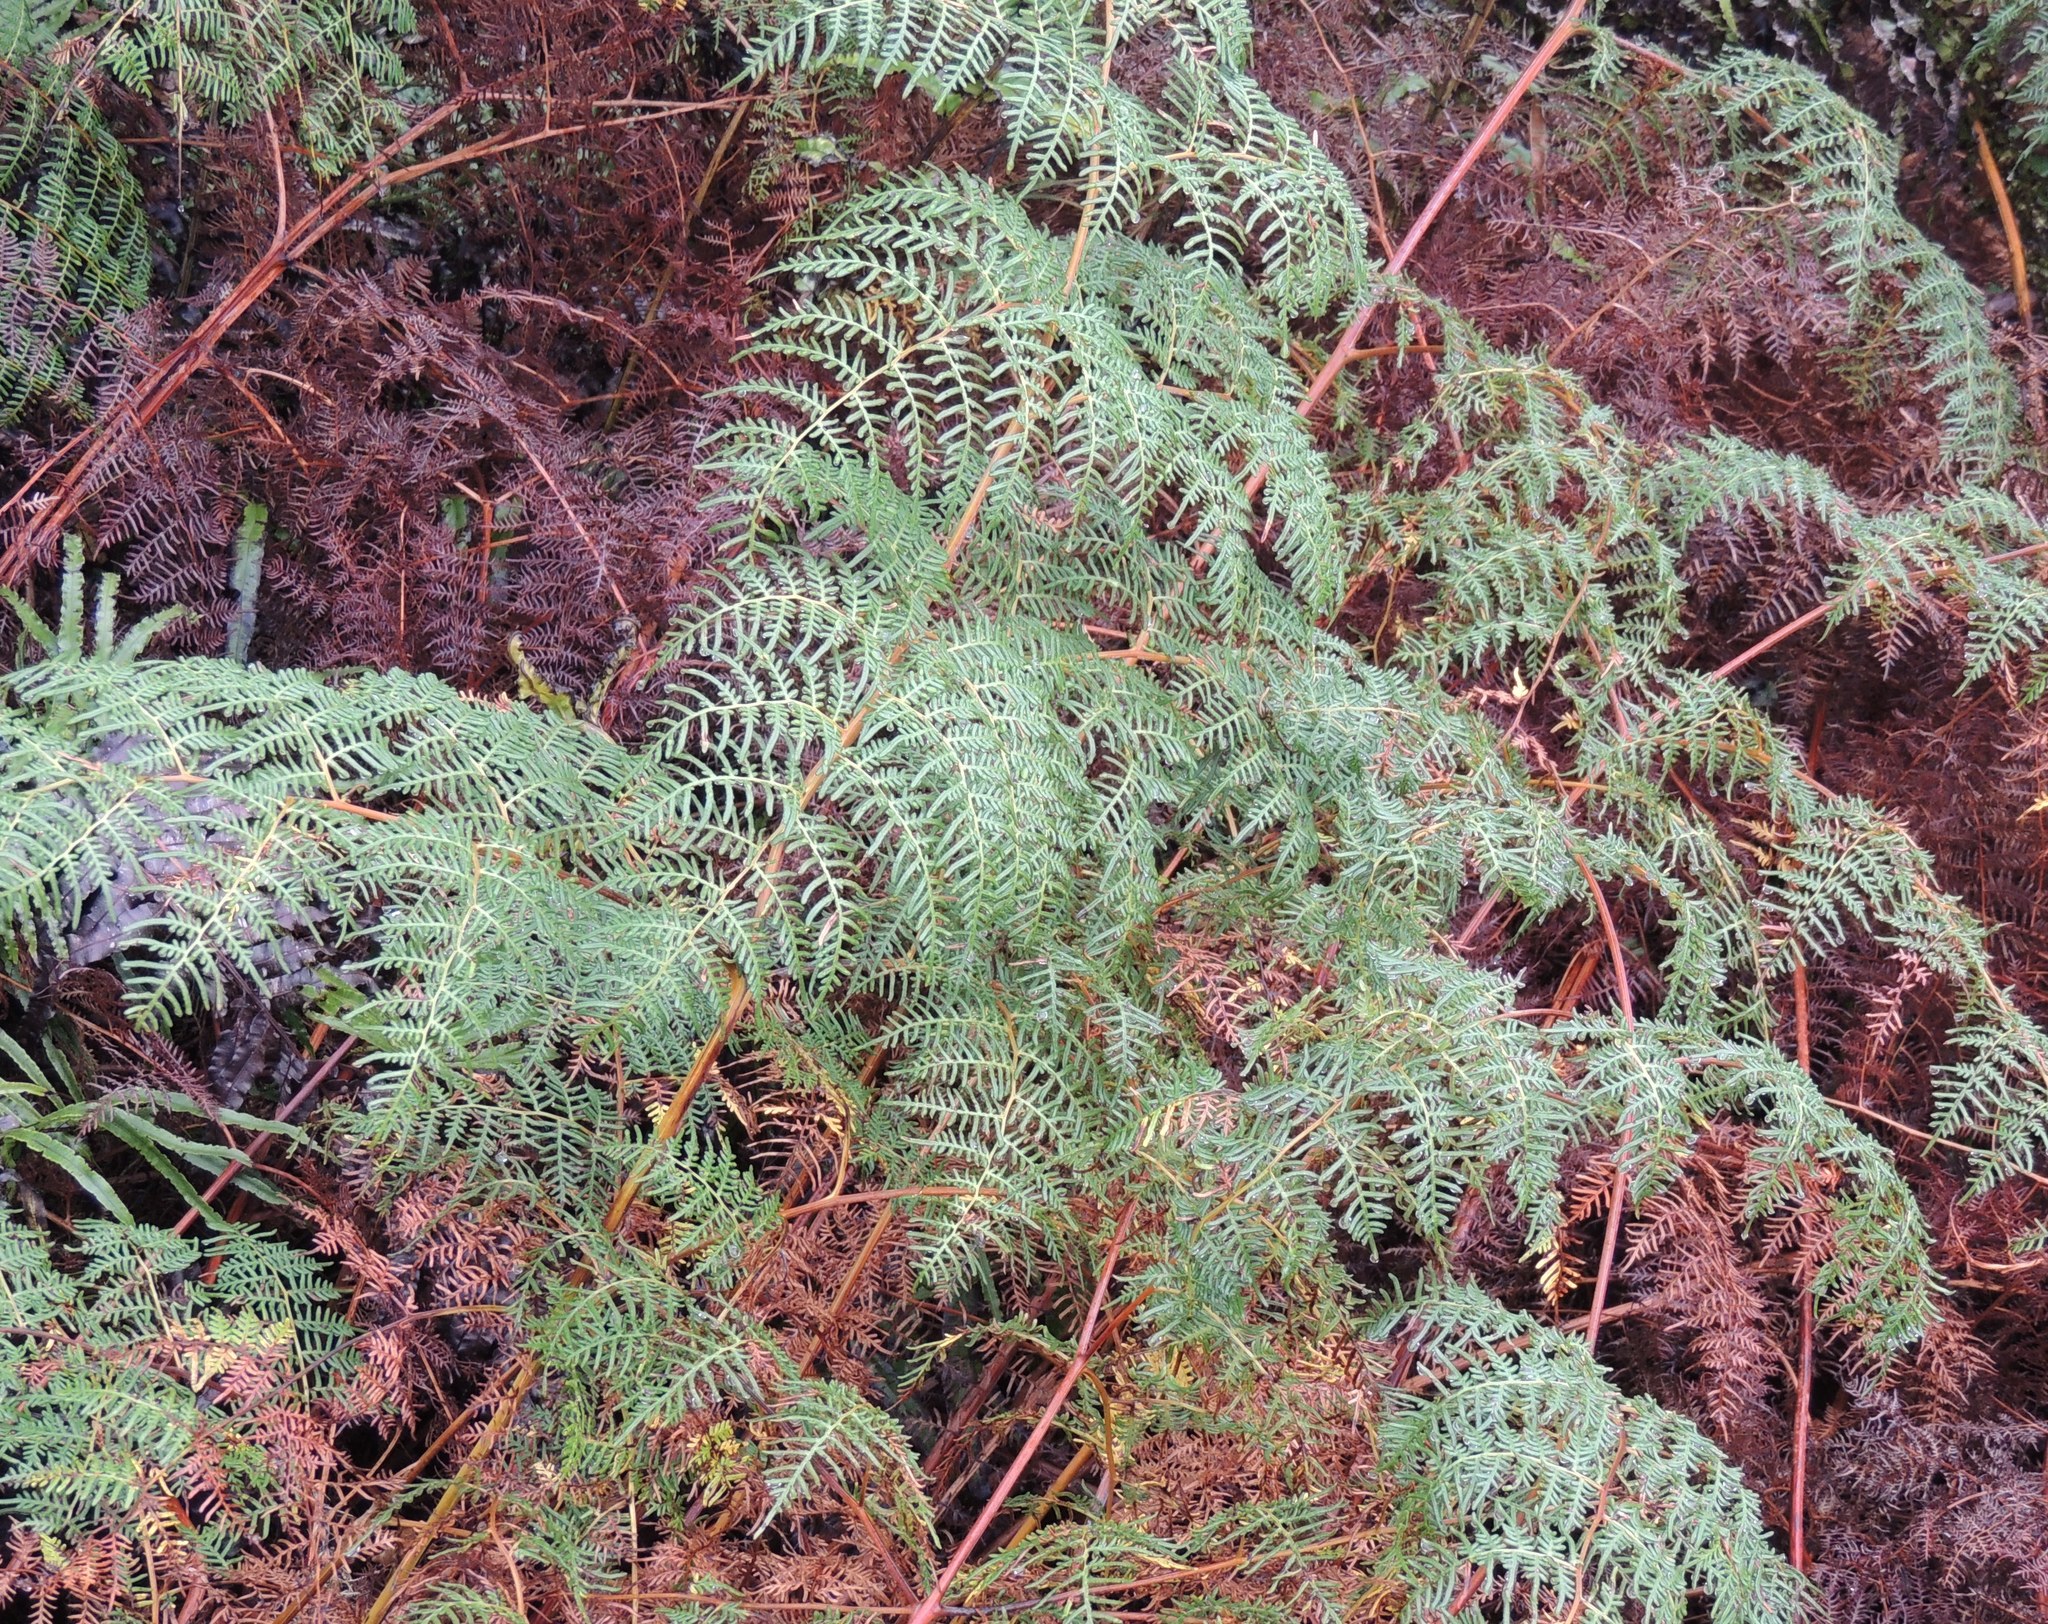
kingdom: Plantae
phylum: Tracheophyta
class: Polypodiopsida
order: Polypodiales
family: Dennstaedtiaceae
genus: Pteridium
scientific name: Pteridium esculentum
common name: Bracken fern
